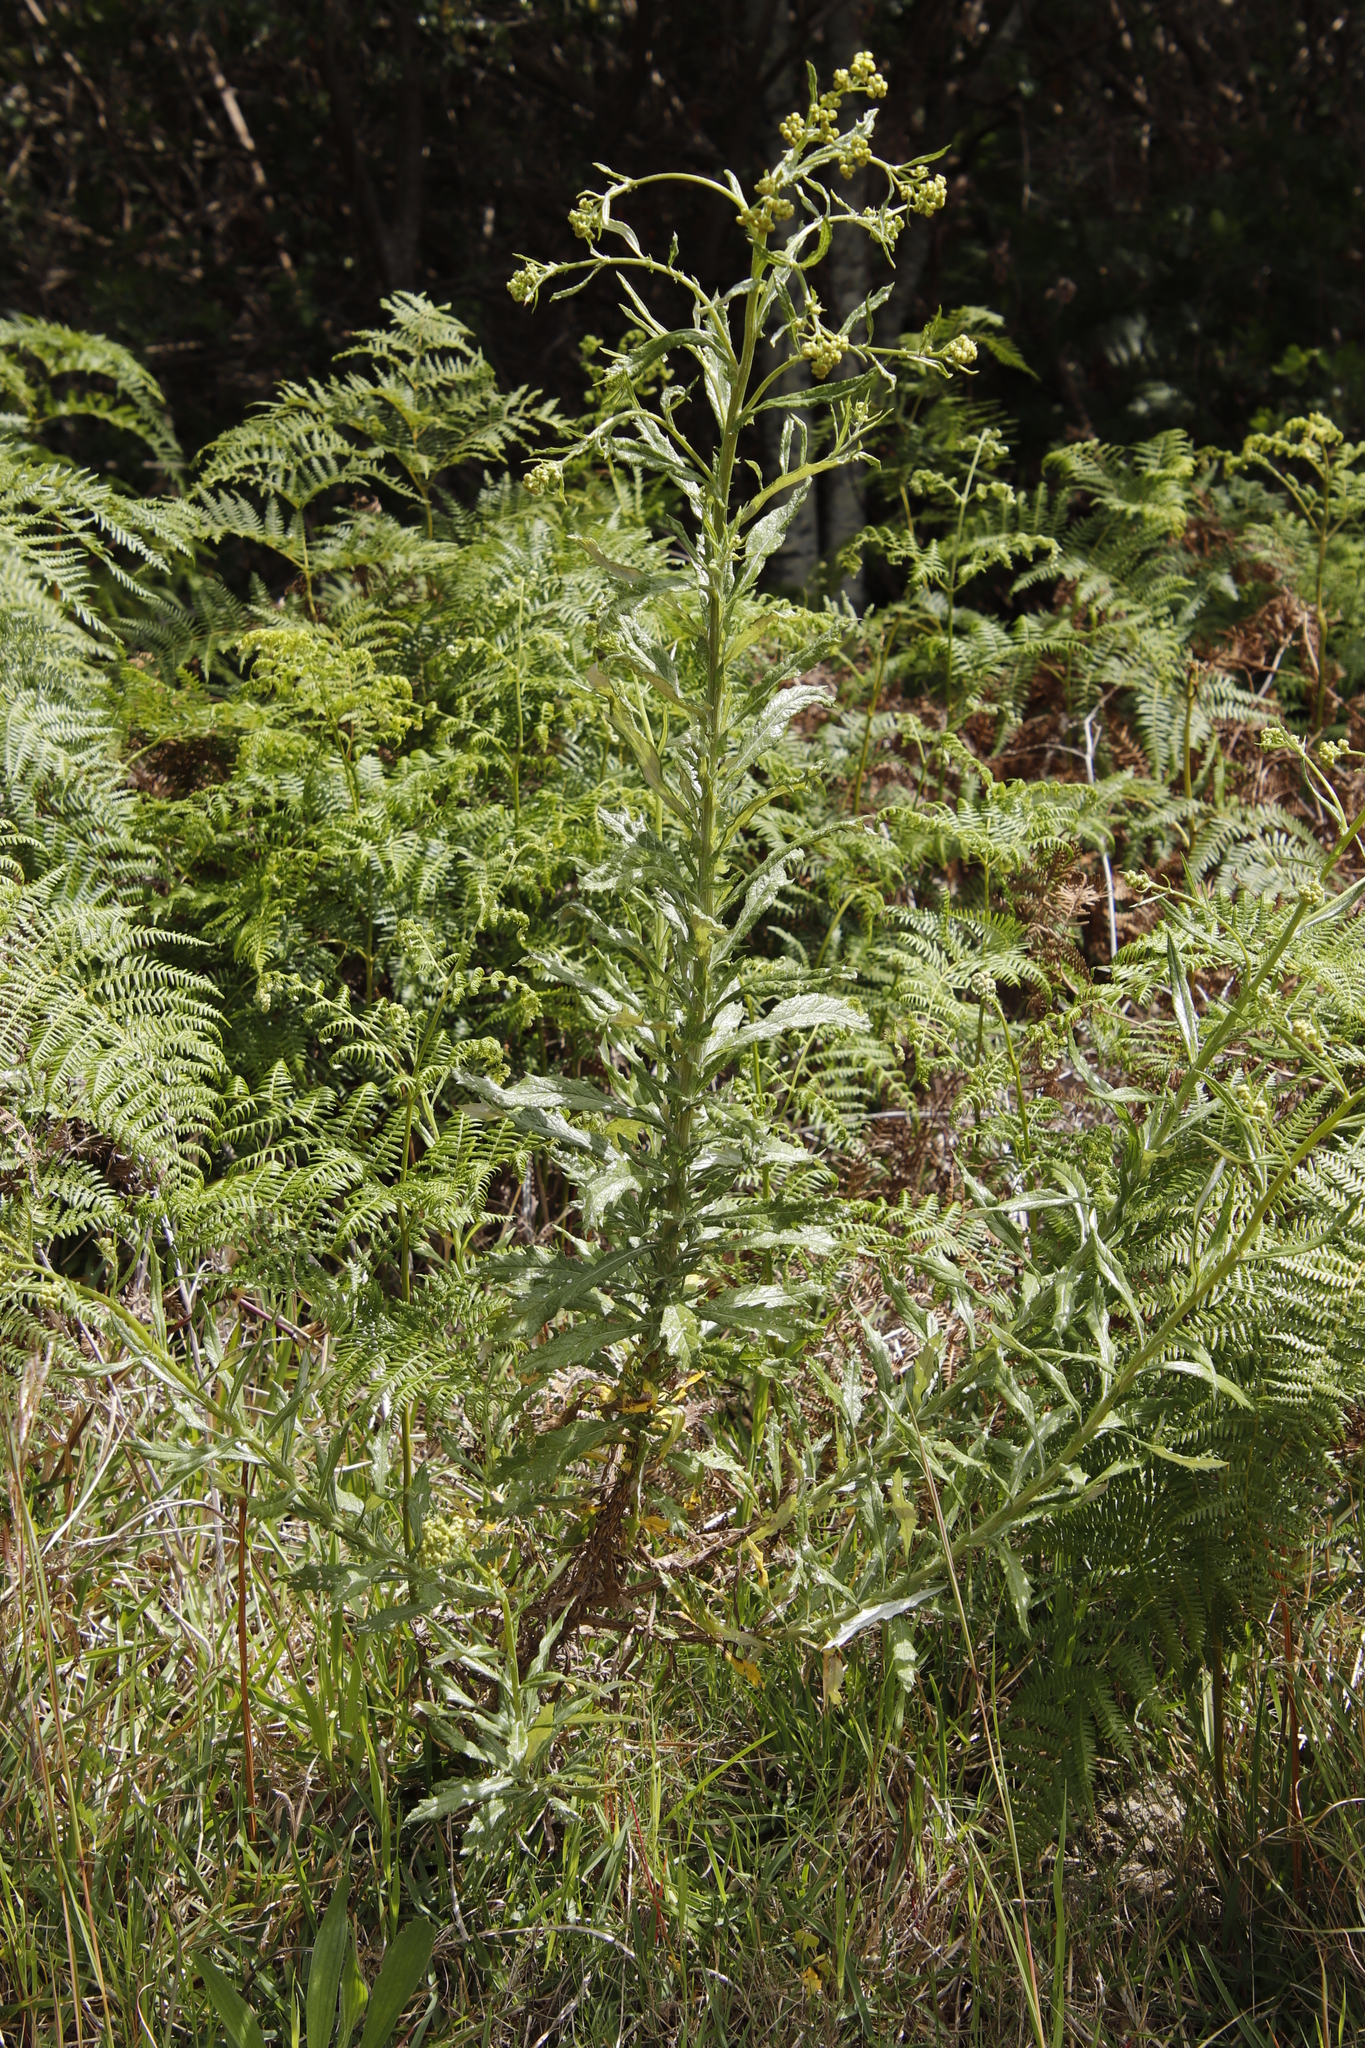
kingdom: Plantae
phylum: Tracheophyta
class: Magnoliopsida
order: Asterales
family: Asteraceae
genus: Senecio
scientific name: Senecio pterophorus
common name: Shoddy ragwort
